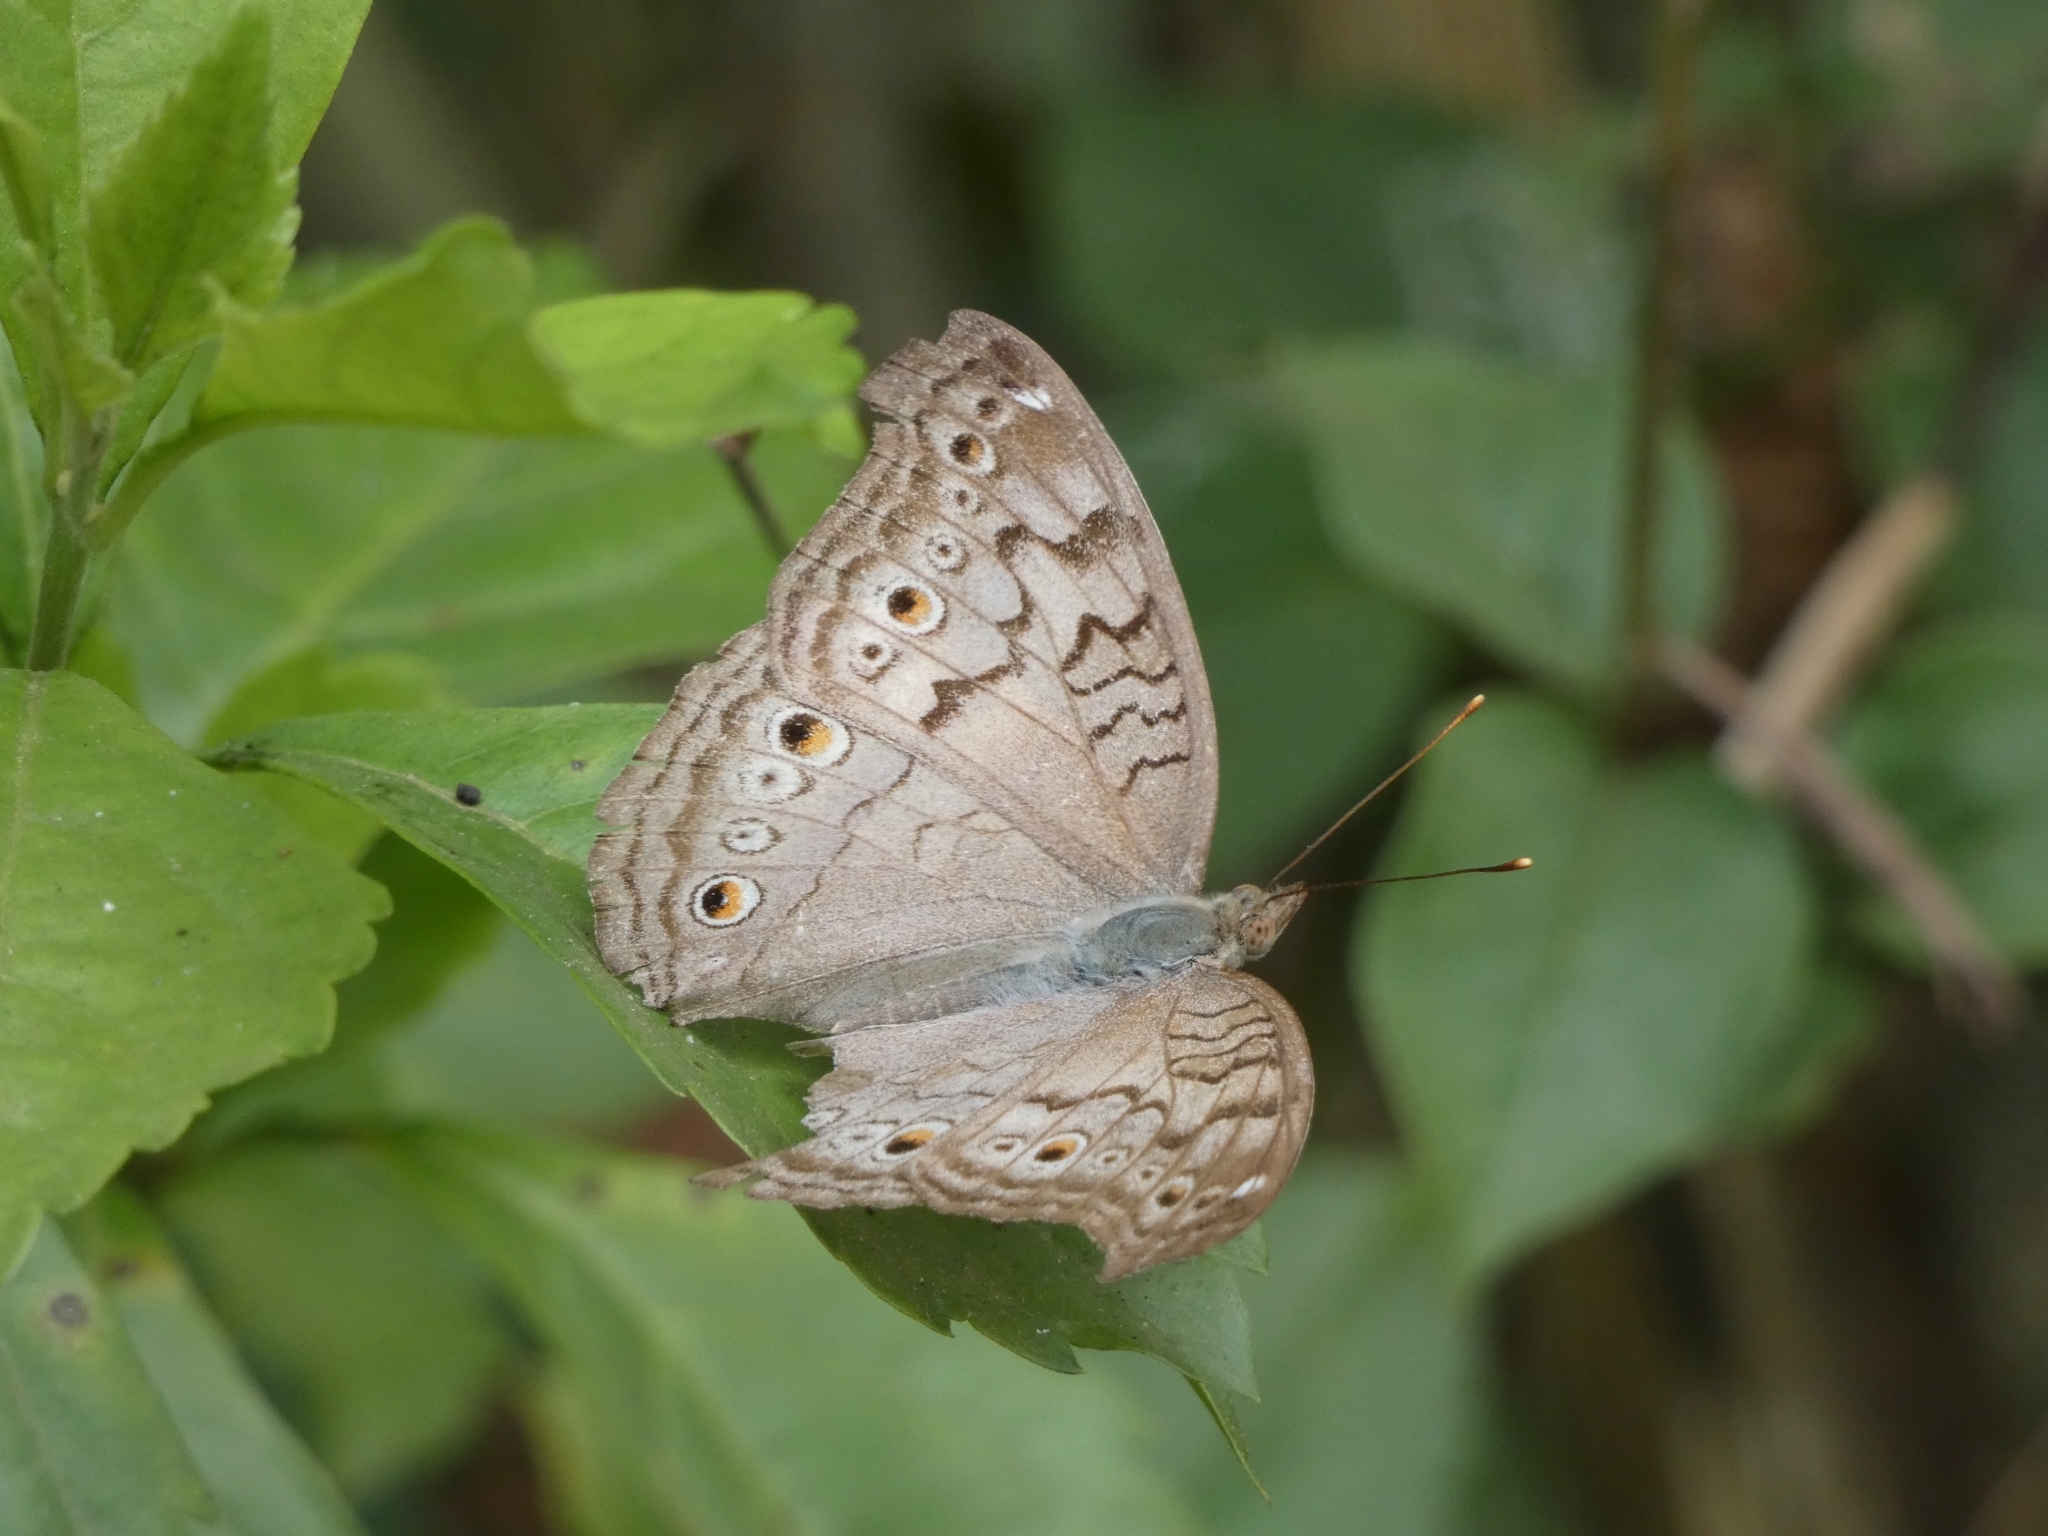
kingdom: Animalia
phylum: Arthropoda
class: Insecta
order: Lepidoptera
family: Nymphalidae
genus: Junonia
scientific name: Junonia atlites
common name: Grey pansy
